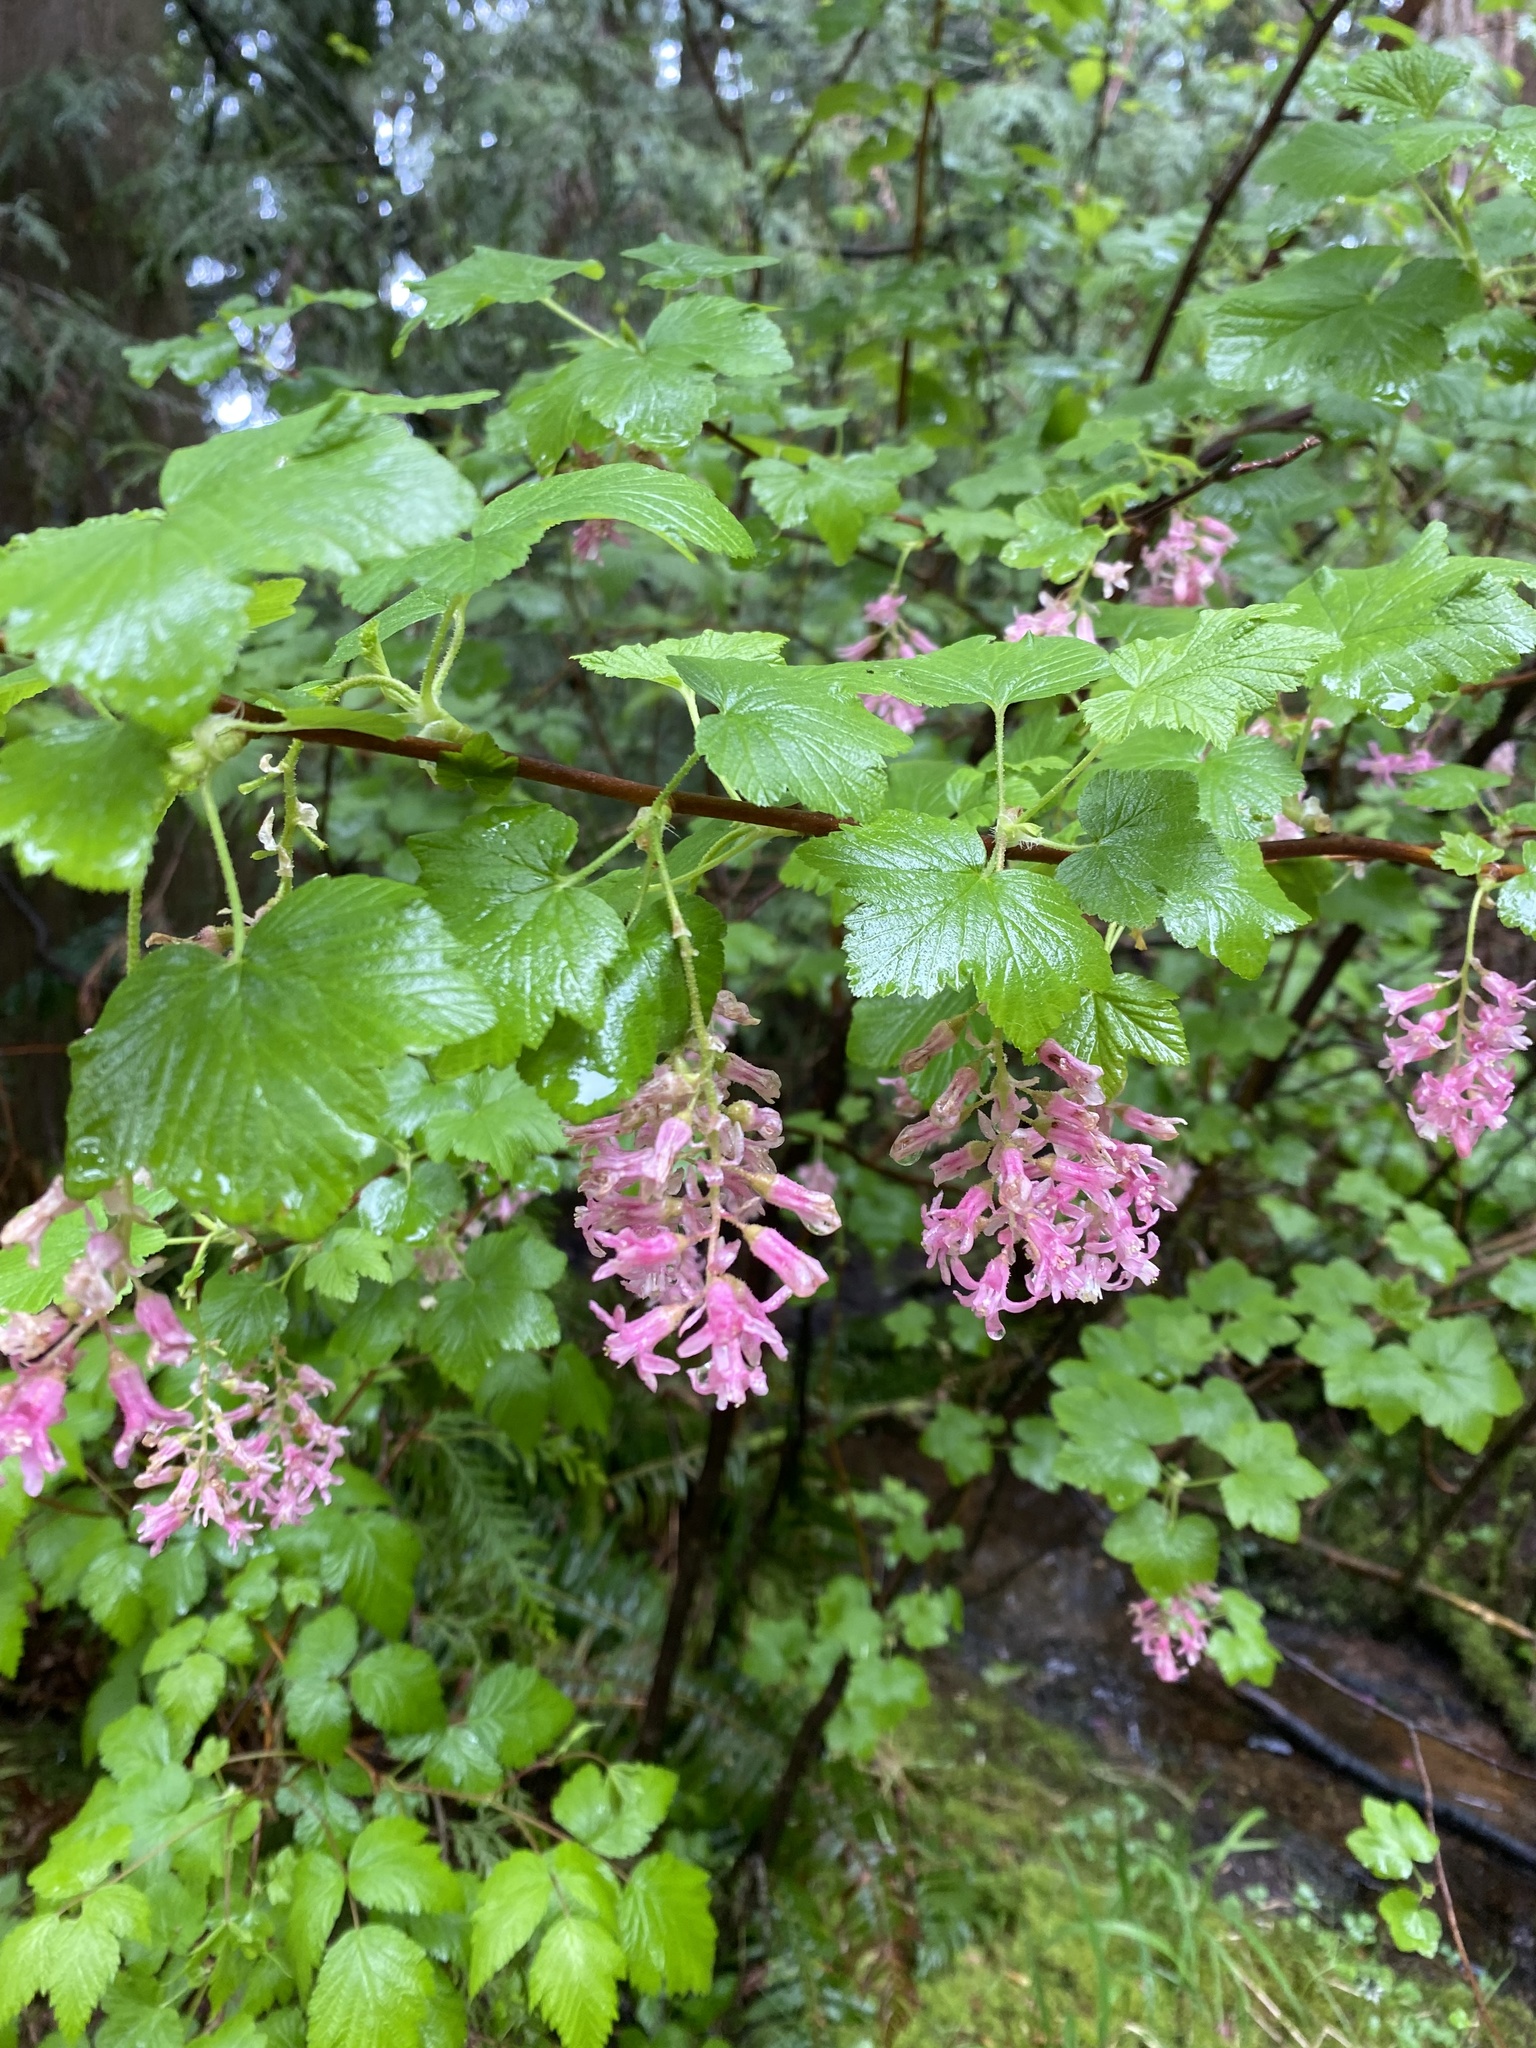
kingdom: Plantae
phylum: Tracheophyta
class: Magnoliopsida
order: Saxifragales
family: Grossulariaceae
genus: Ribes
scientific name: Ribes sanguineum
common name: Flowering currant
